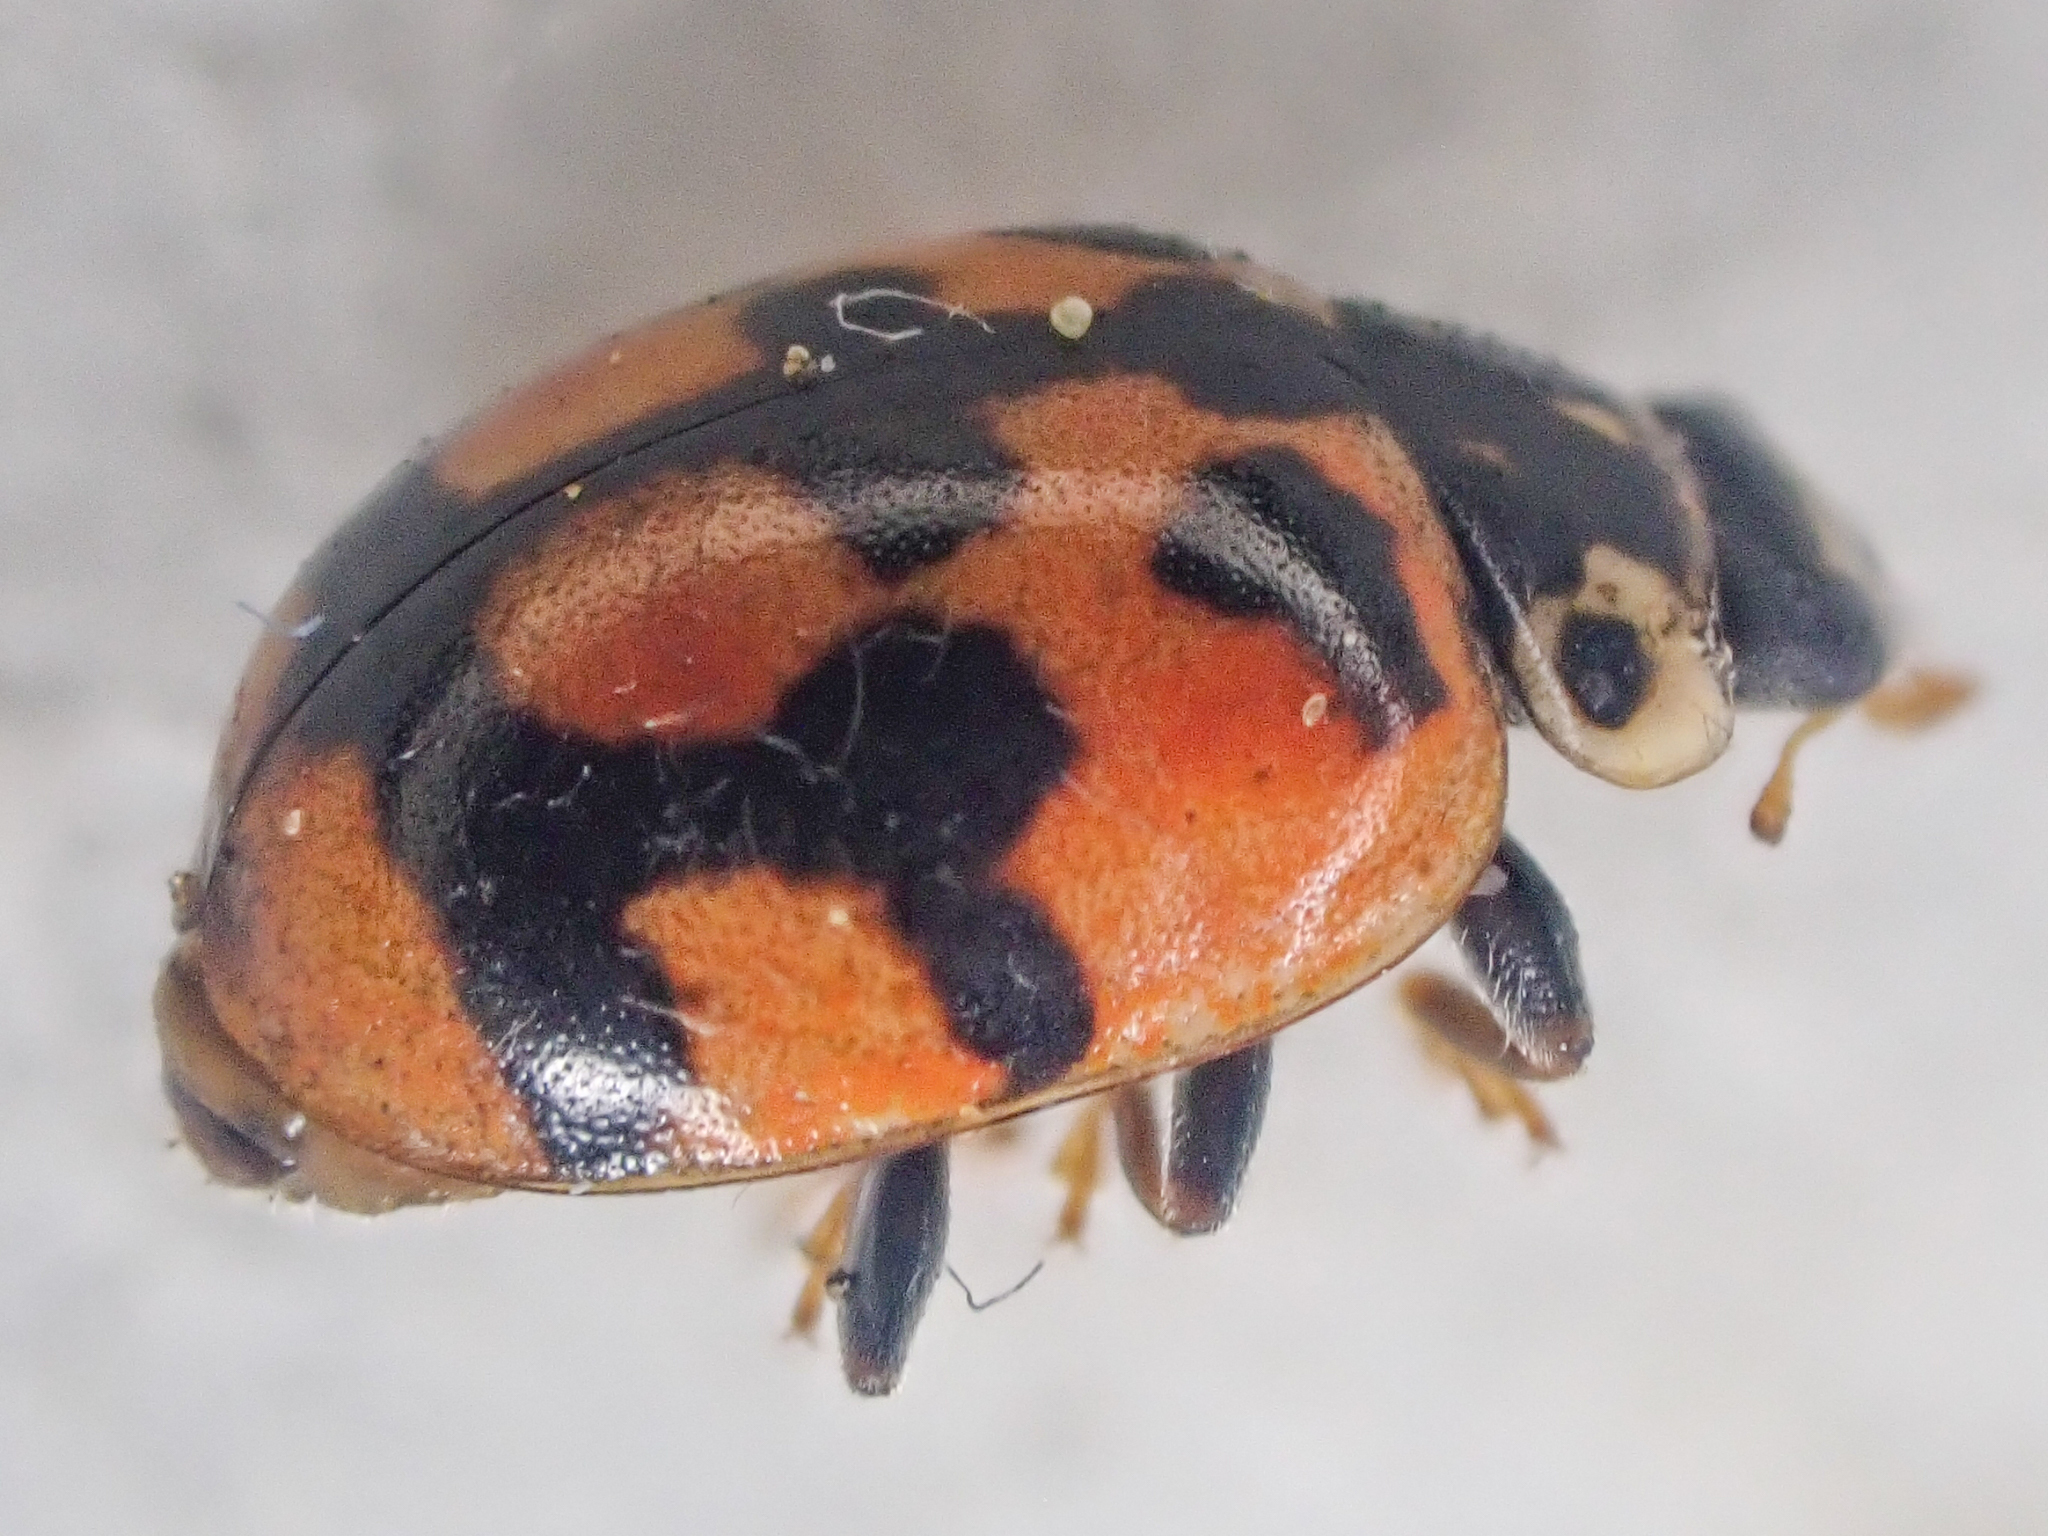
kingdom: Animalia
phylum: Arthropoda
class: Insecta
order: Coleoptera
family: Coccinellidae
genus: Adalia
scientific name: Adalia bipunctata
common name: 2-spot ladybird
